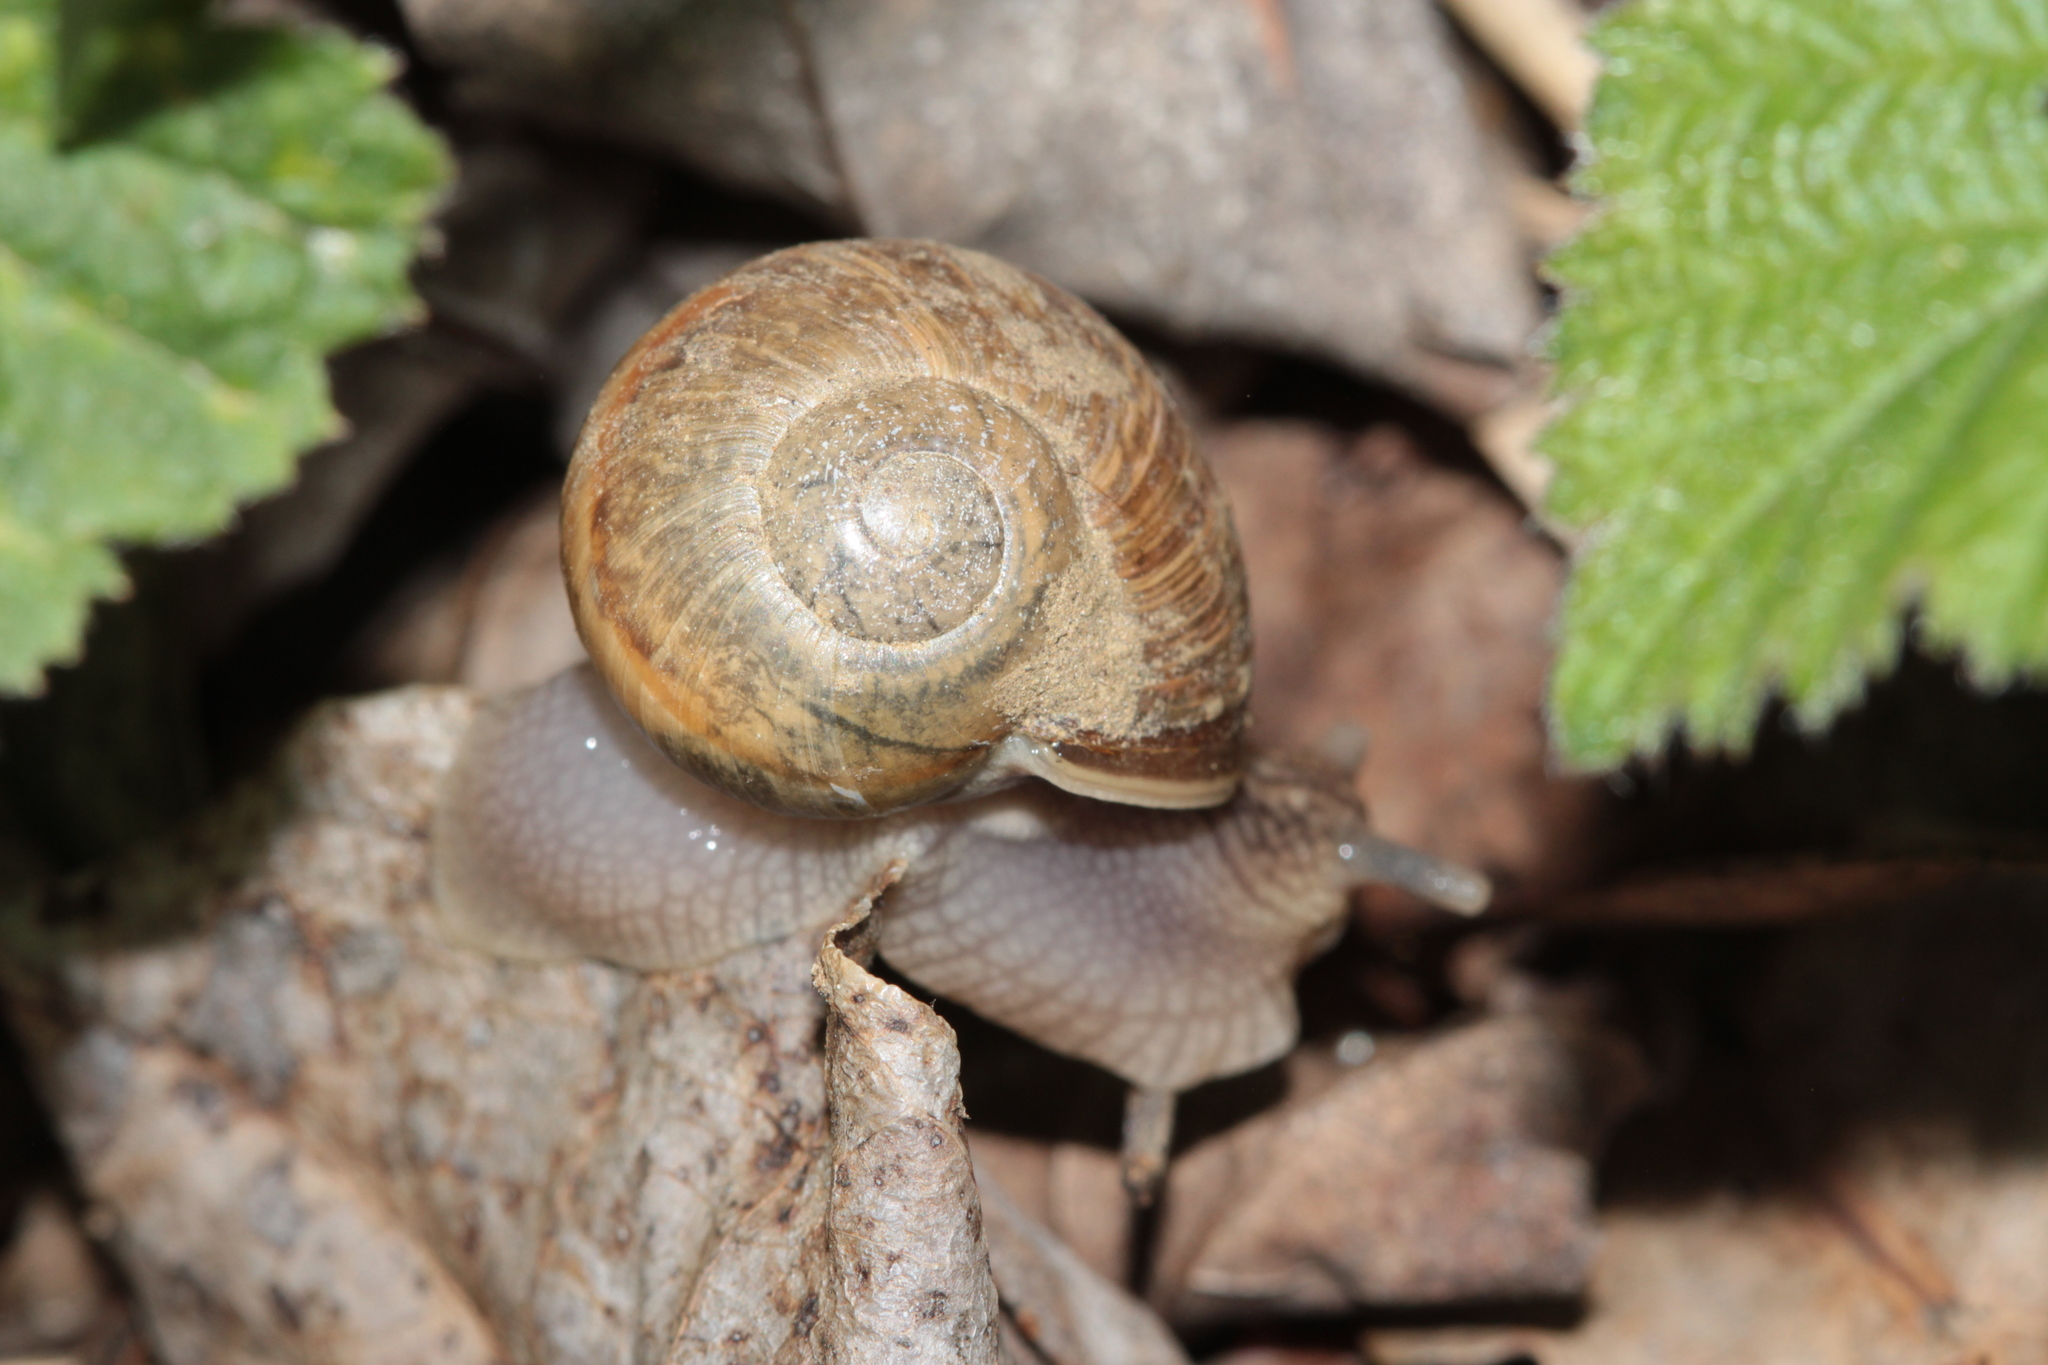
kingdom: Animalia
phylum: Mollusca
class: Gastropoda
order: Stylommatophora
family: Helicidae
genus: Helix
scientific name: Helix pomatia
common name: Roman snail
